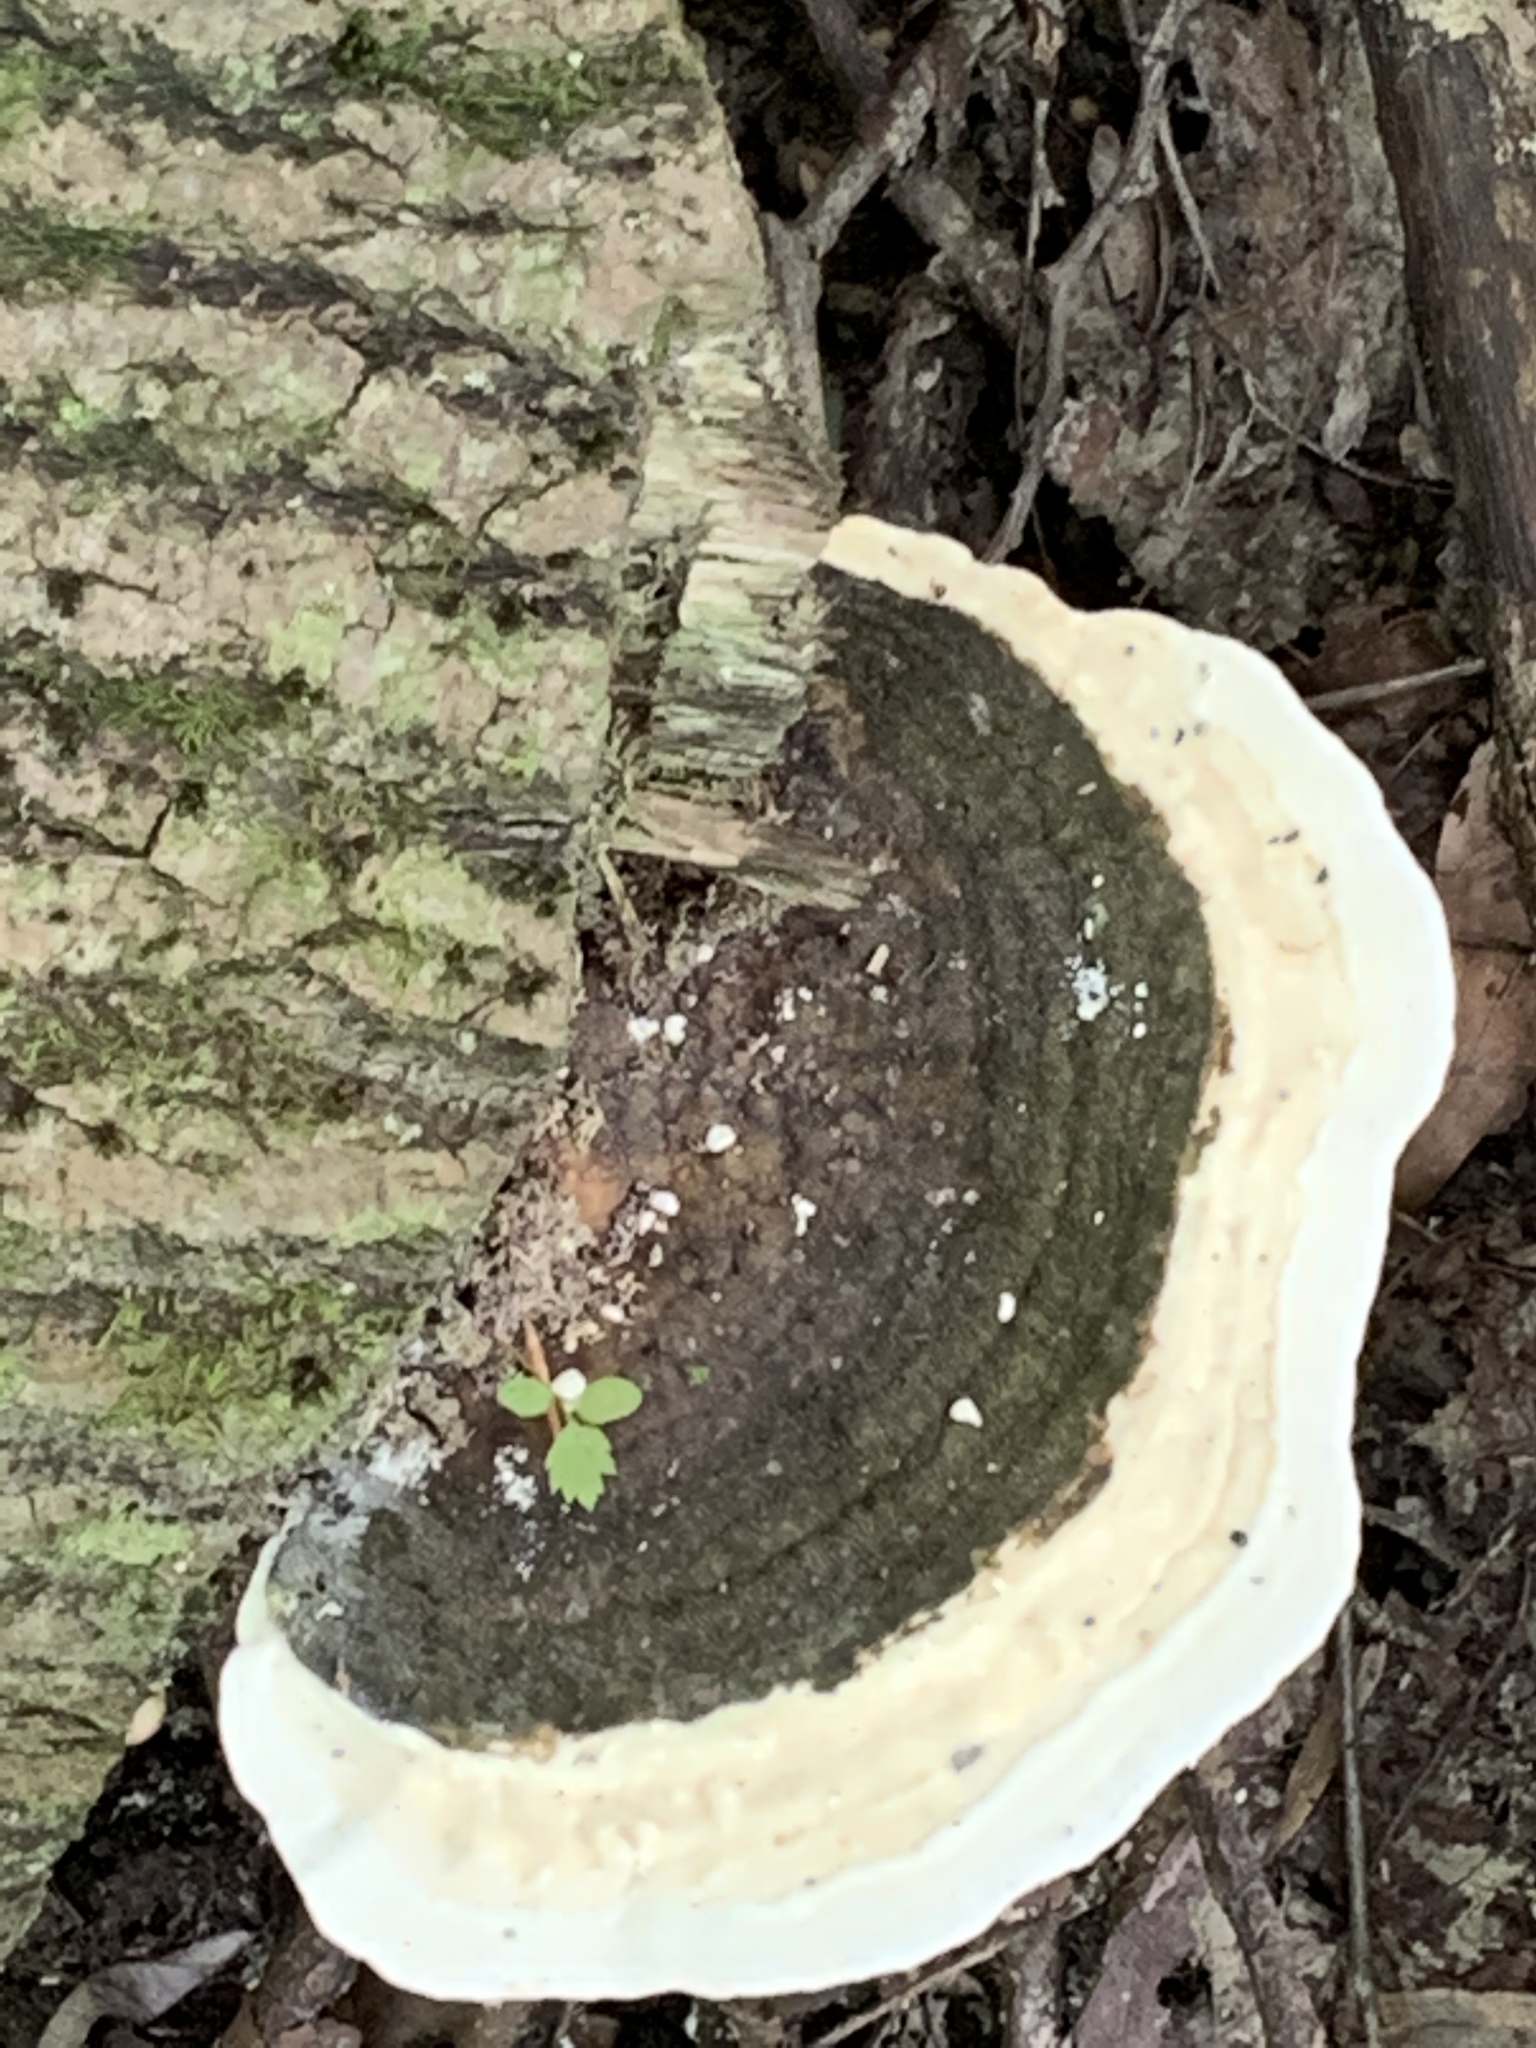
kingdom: Fungi
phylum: Basidiomycota
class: Agaricomycetes
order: Polyporales
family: Polyporaceae
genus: Ganoderma
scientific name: Ganoderma applanatum
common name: Artist's bracket
